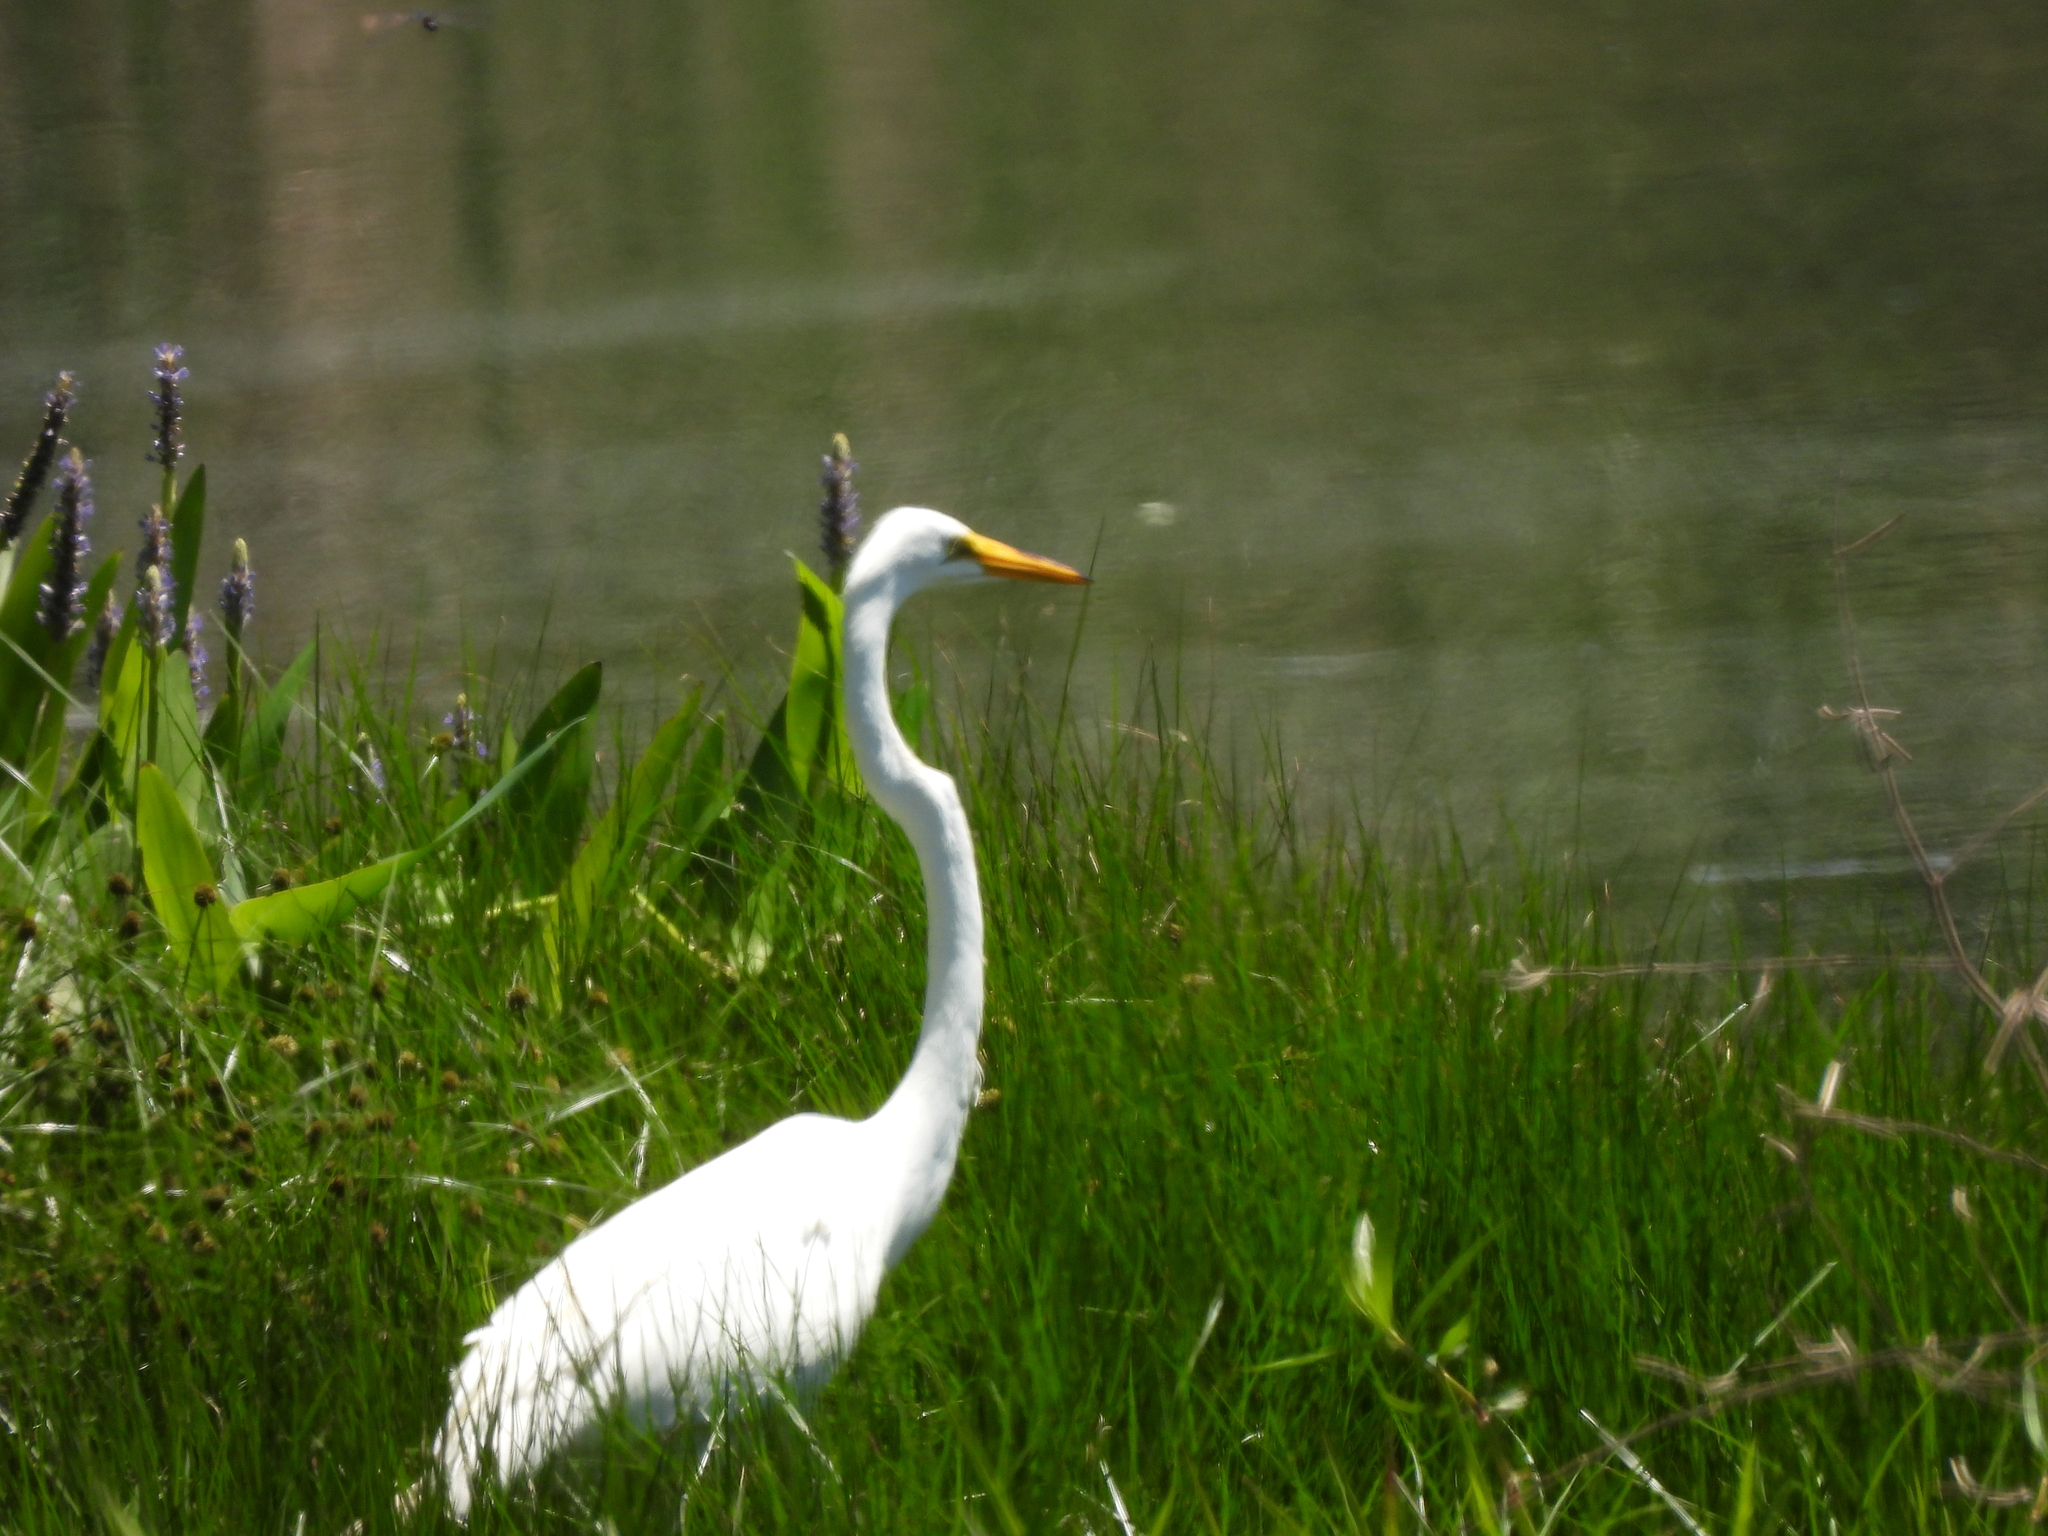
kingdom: Animalia
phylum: Chordata
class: Aves
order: Pelecaniformes
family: Ardeidae
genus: Ardea
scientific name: Ardea alba
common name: Great egret
